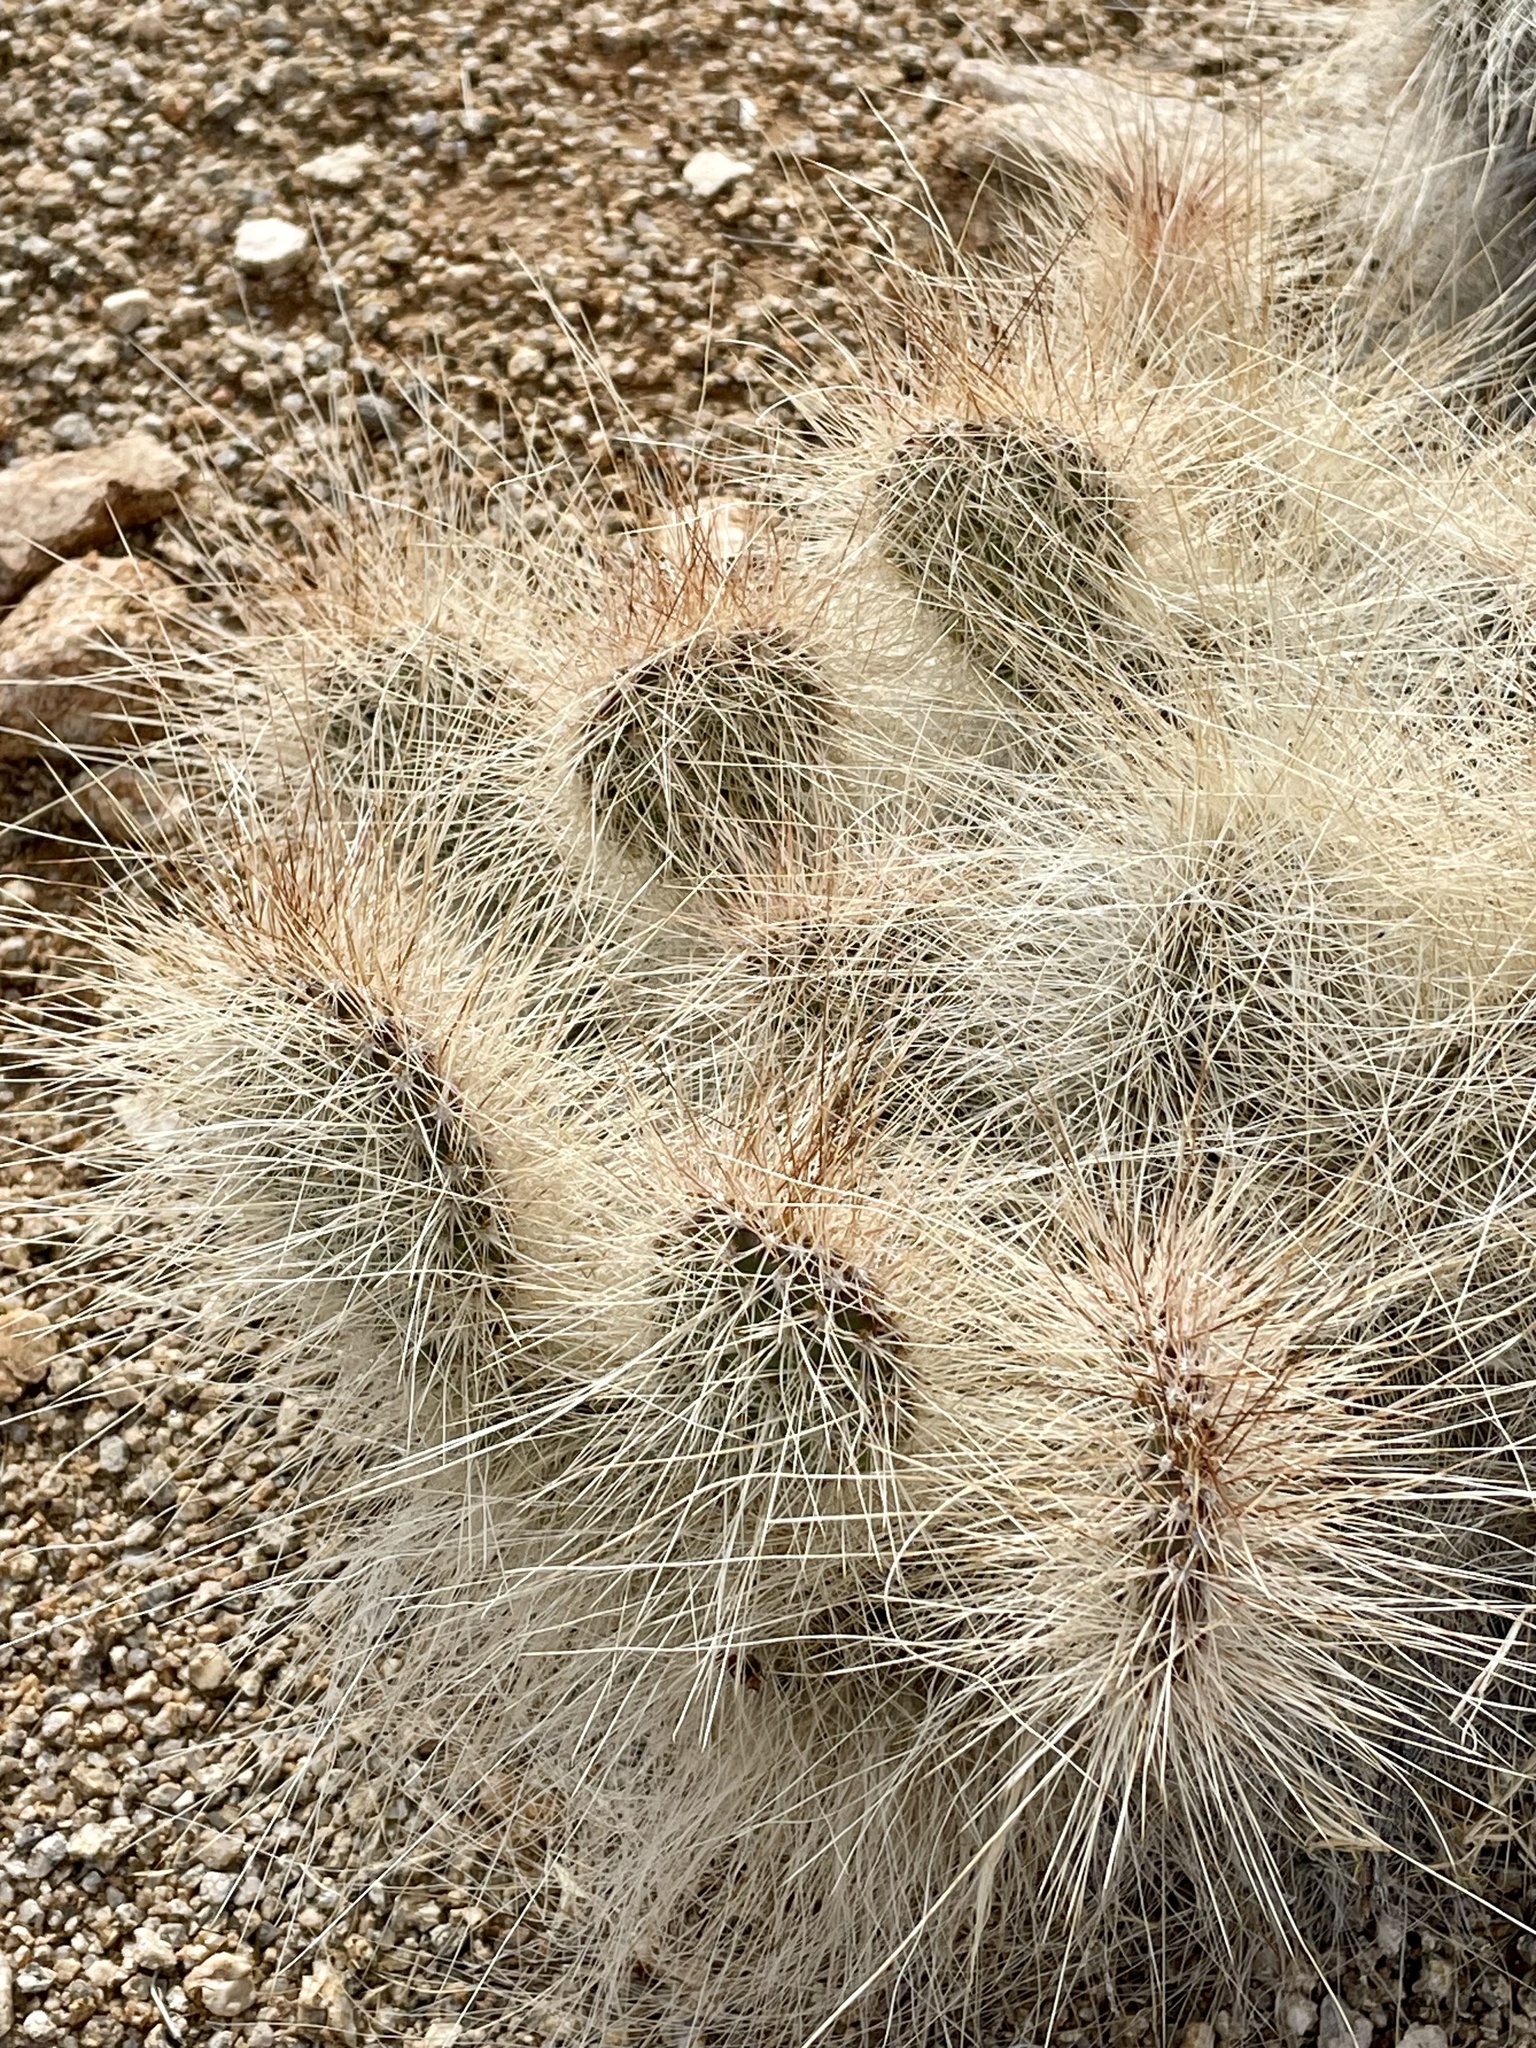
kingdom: Plantae
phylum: Tracheophyta
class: Magnoliopsida
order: Caryophyllales
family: Cactaceae
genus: Opuntia
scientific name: Opuntia polyacantha
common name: Plains prickly-pear
